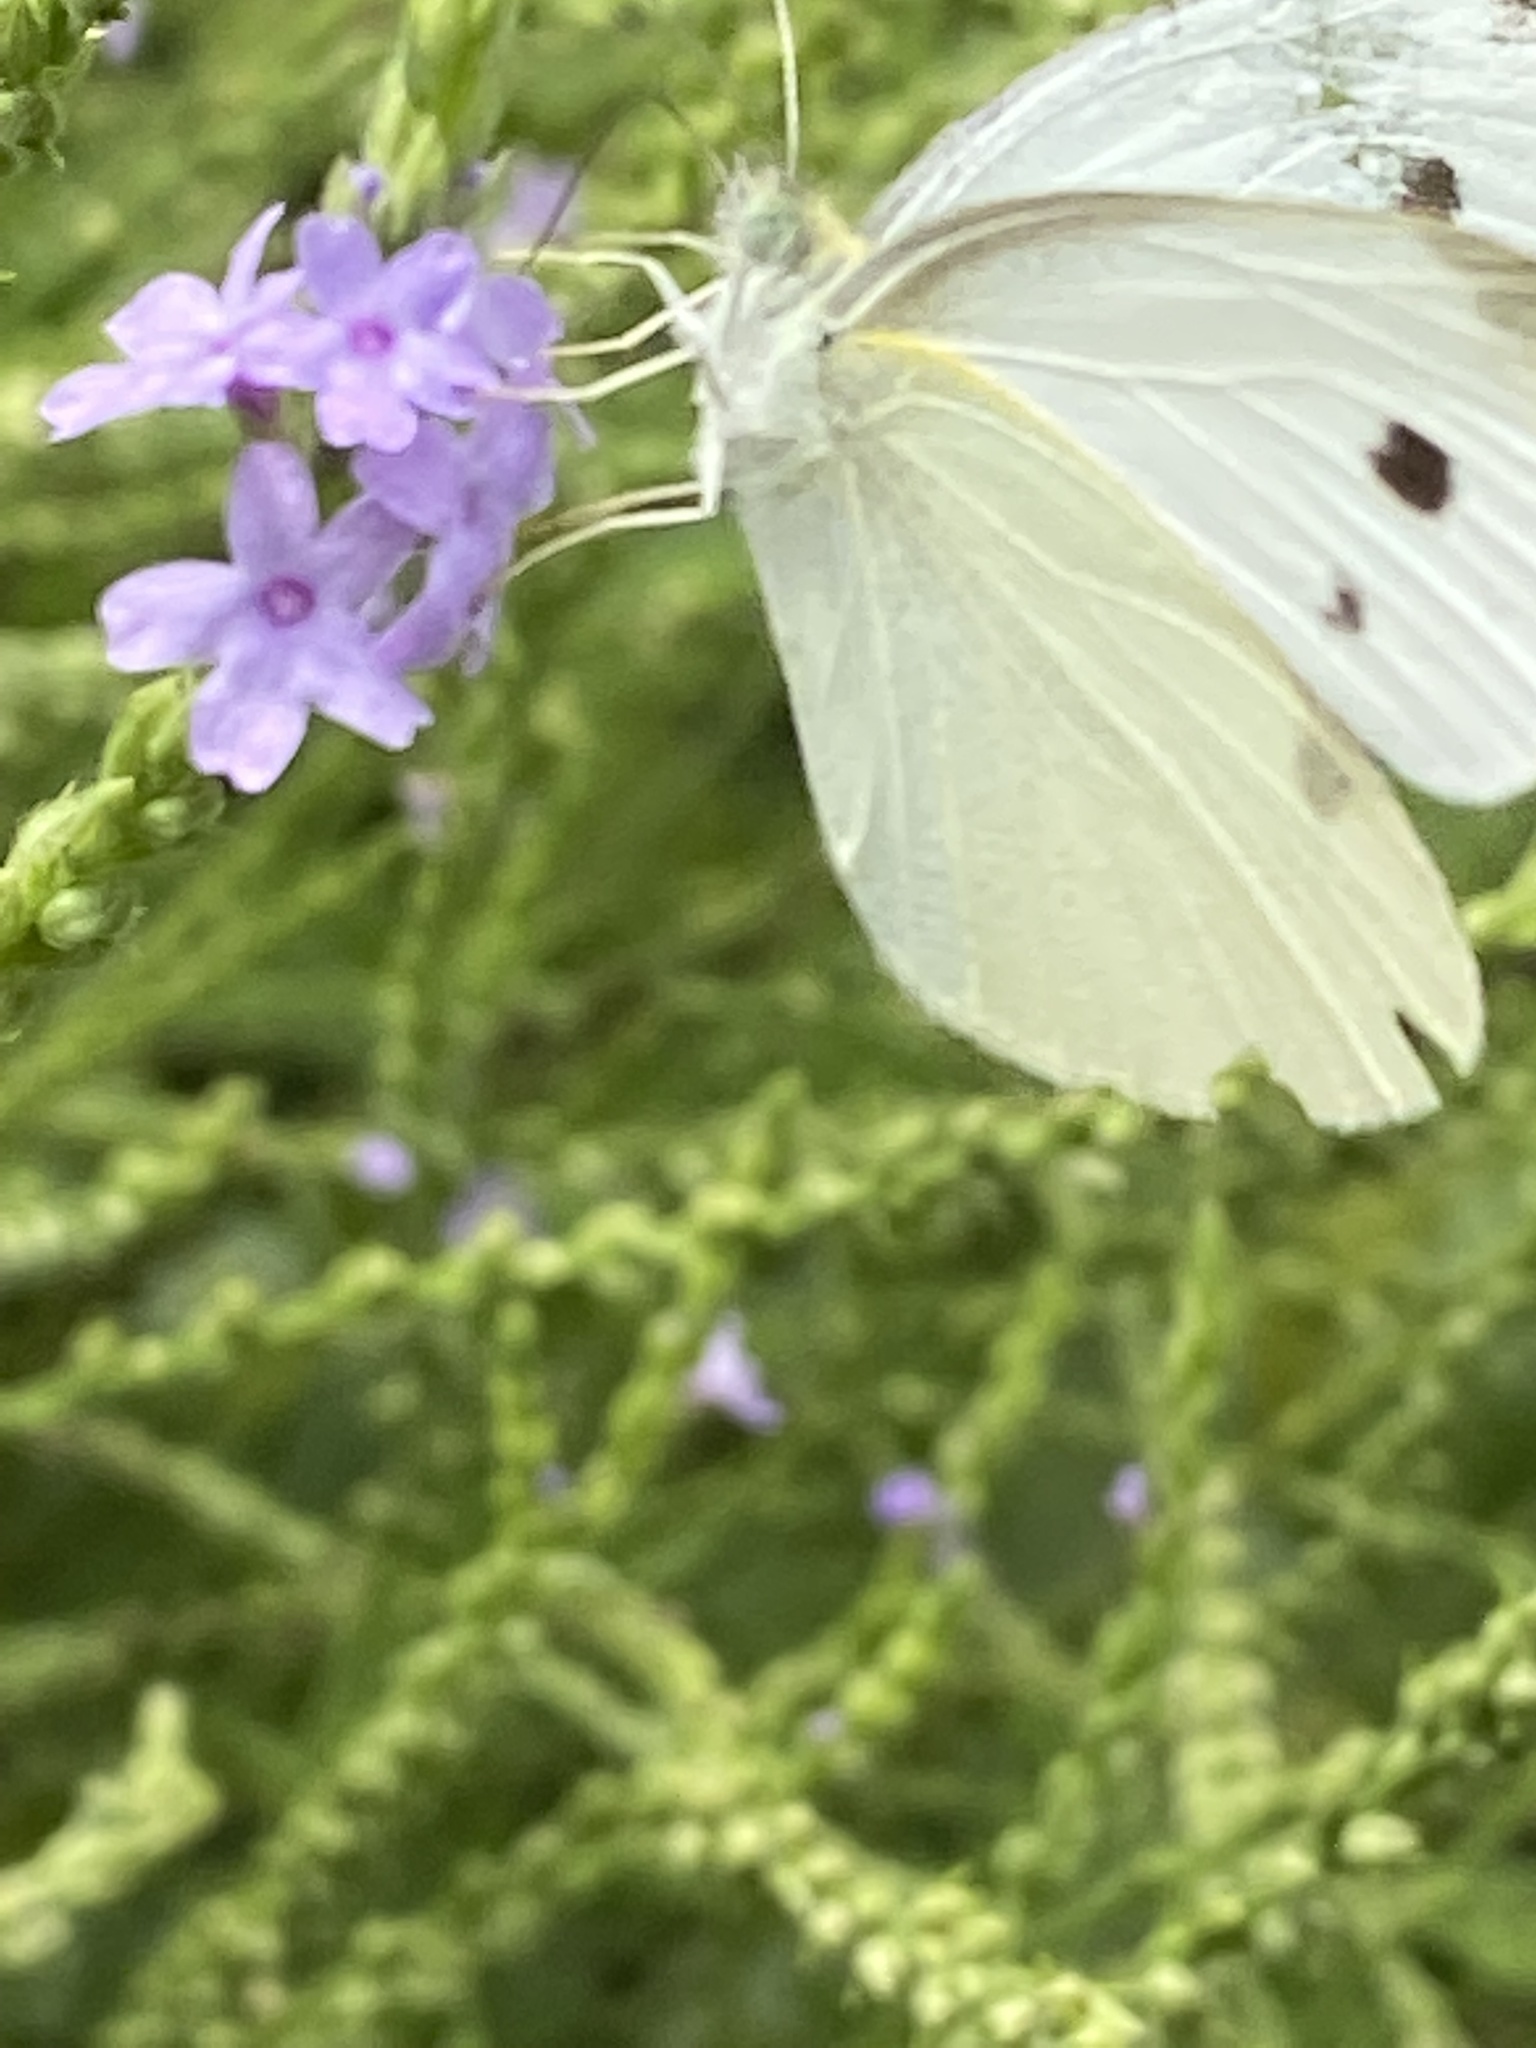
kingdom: Animalia
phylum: Arthropoda
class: Insecta
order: Lepidoptera
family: Pieridae
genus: Pieris
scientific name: Pieris rapae
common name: Small white
